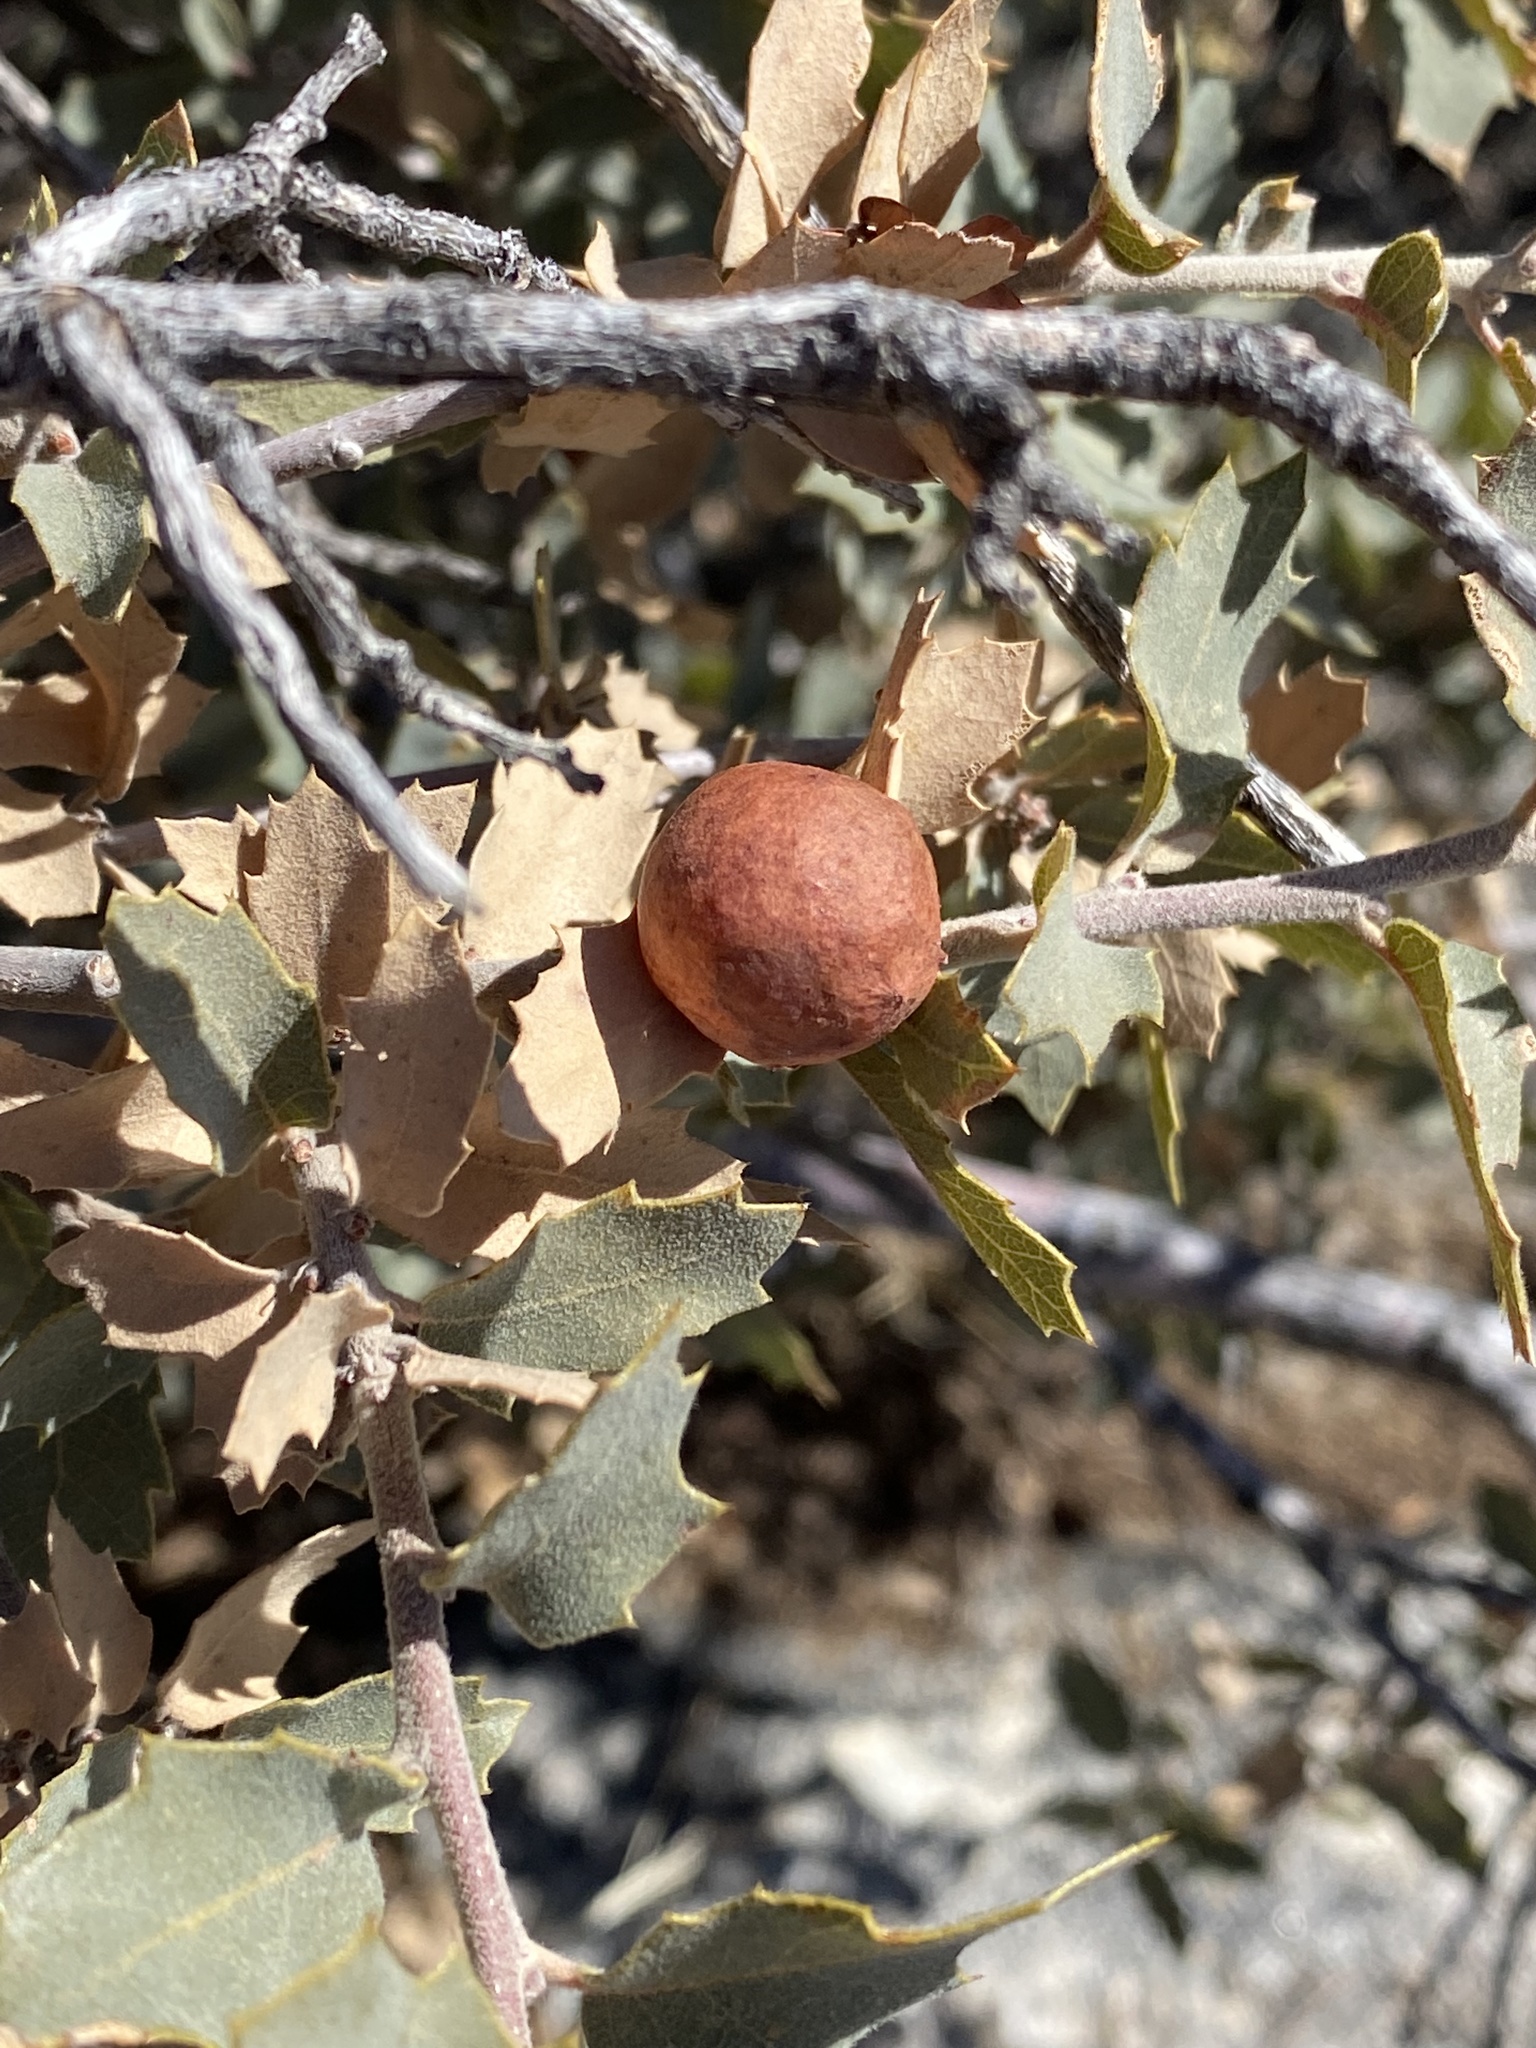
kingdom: Animalia
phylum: Arthropoda
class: Insecta
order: Hymenoptera
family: Cynipidae
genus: Atrusca
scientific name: Atrusca
